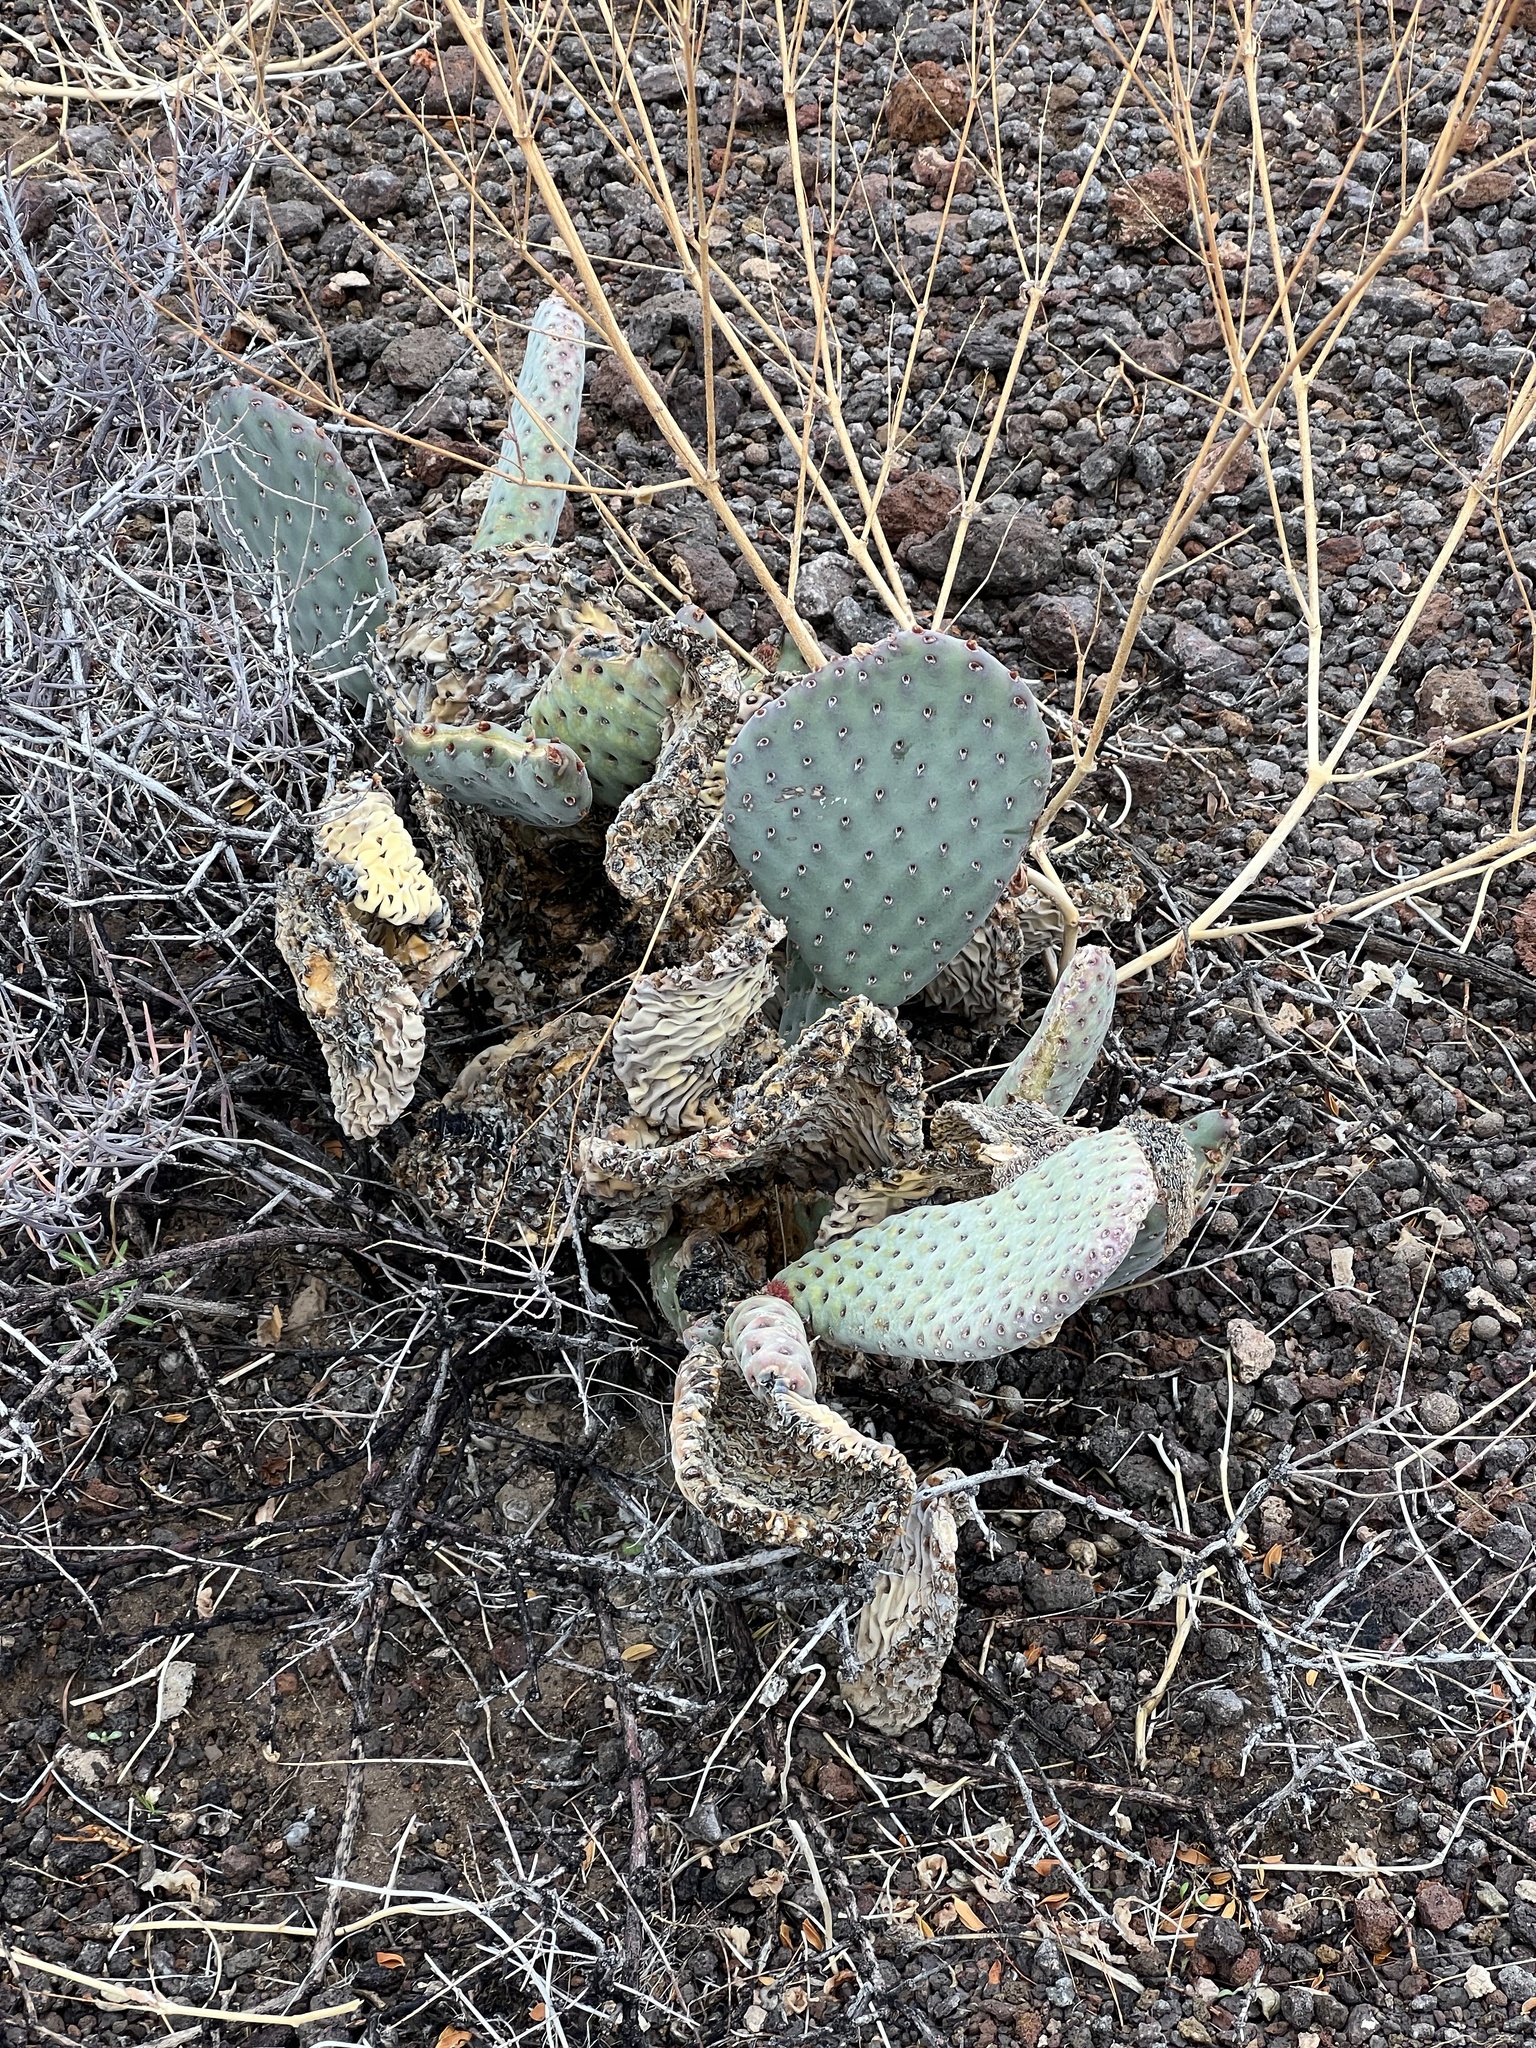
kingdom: Plantae
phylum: Tracheophyta
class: Magnoliopsida
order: Caryophyllales
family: Cactaceae
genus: Opuntia
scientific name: Opuntia basilaris
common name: Beavertail prickly-pear
